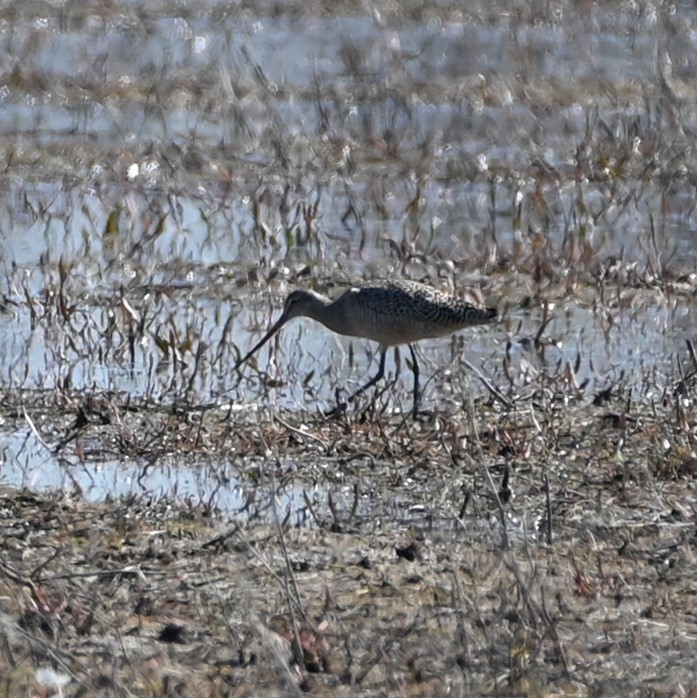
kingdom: Animalia
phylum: Chordata
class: Aves
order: Charadriiformes
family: Scolopacidae
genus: Limosa
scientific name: Limosa fedoa
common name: Marbled godwit
